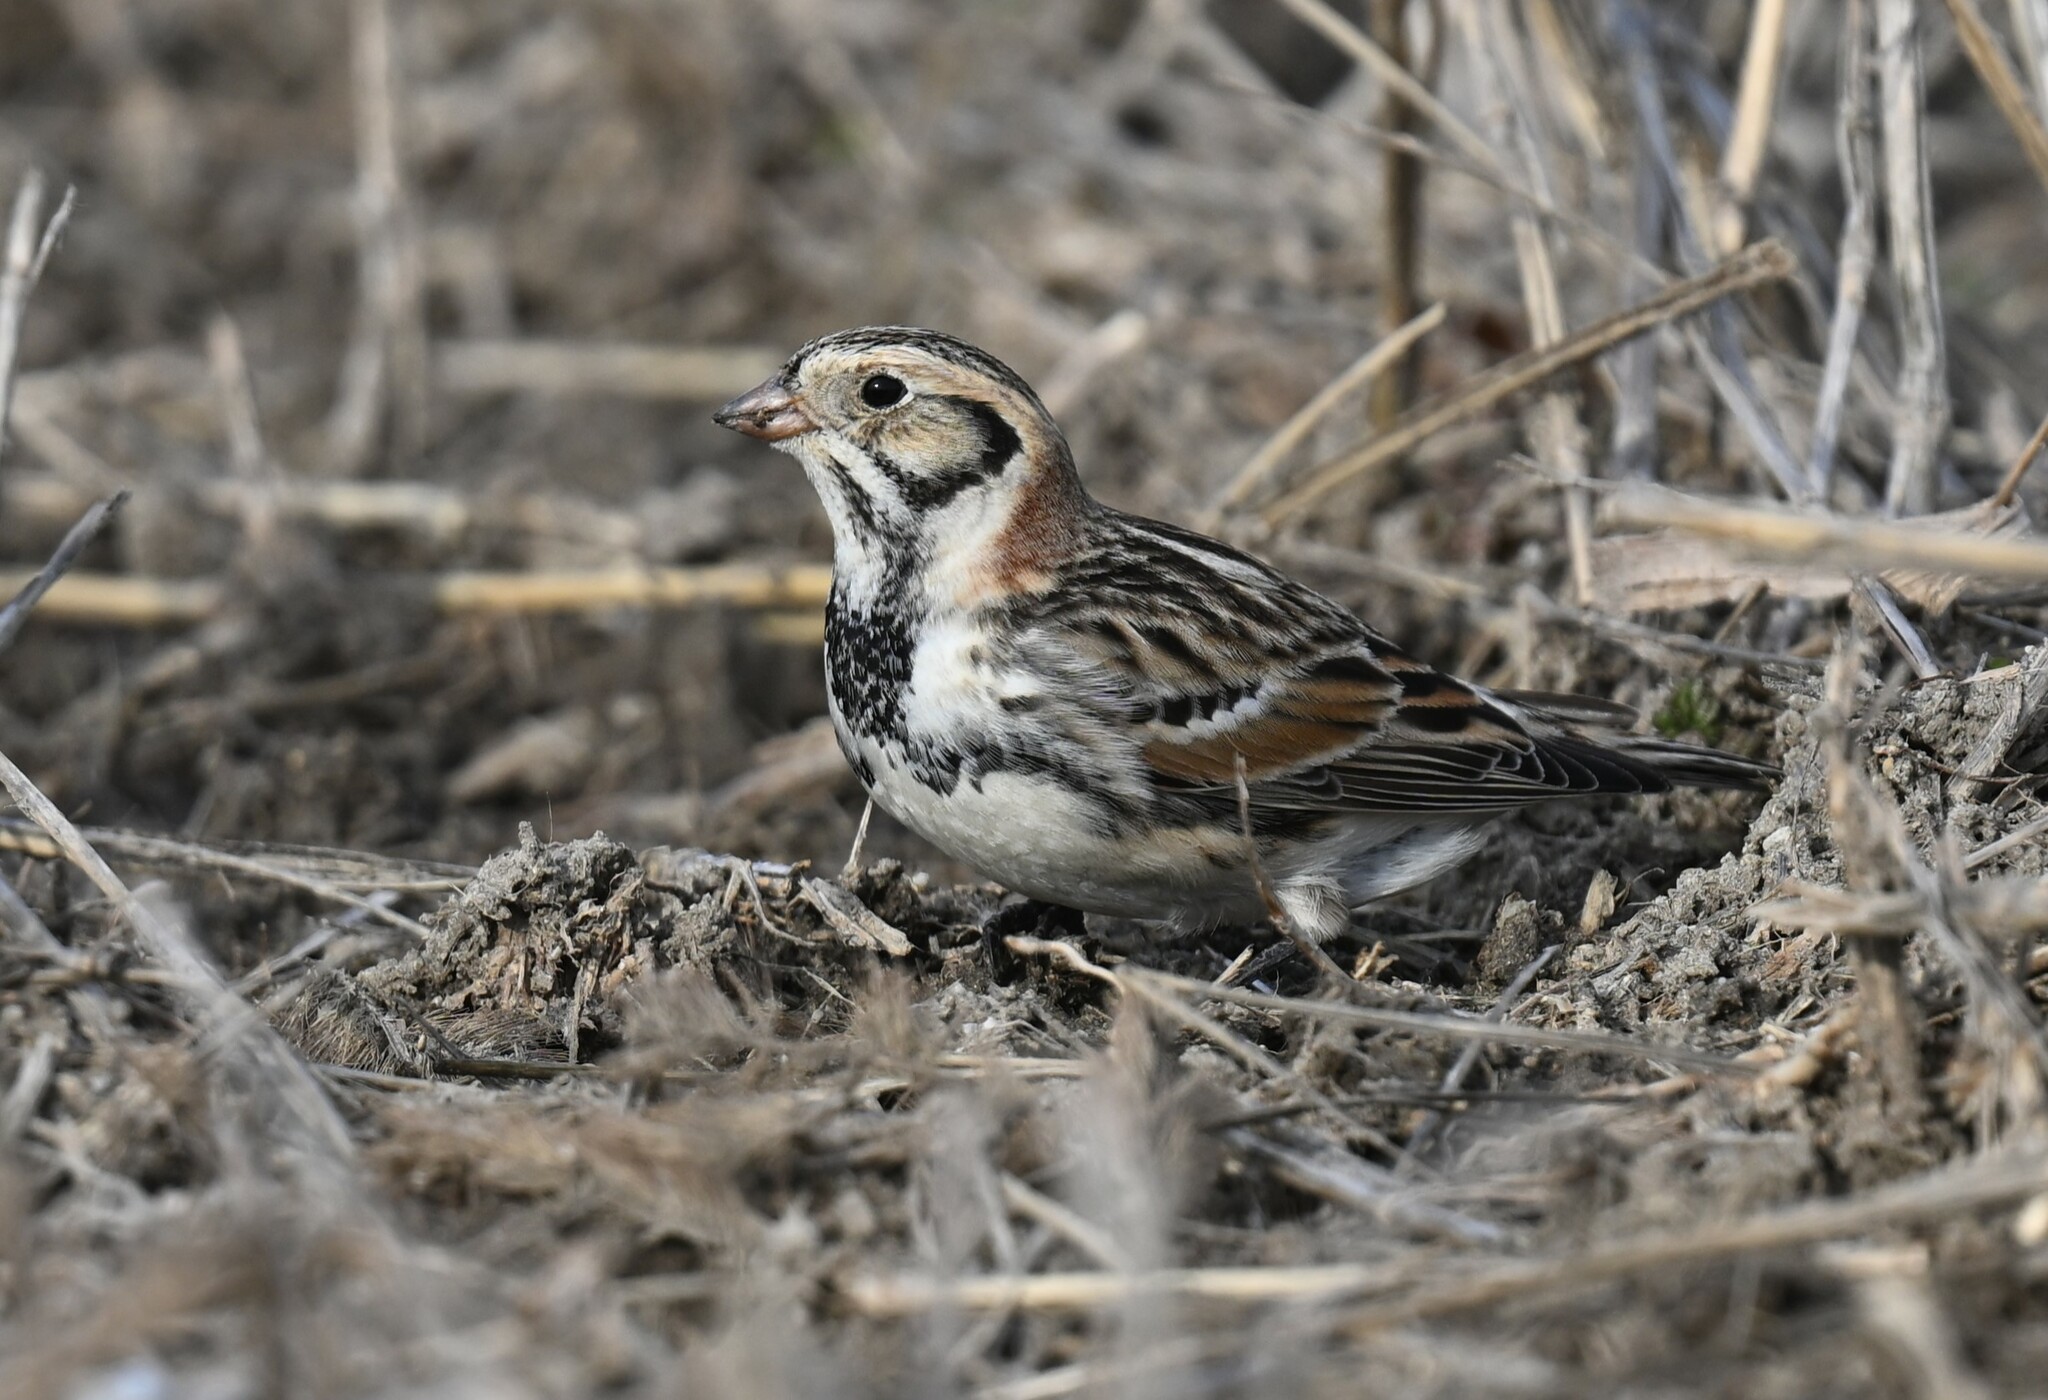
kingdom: Animalia
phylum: Chordata
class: Aves
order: Passeriformes
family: Calcariidae
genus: Calcarius
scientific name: Calcarius lapponicus
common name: Lapland longspur
